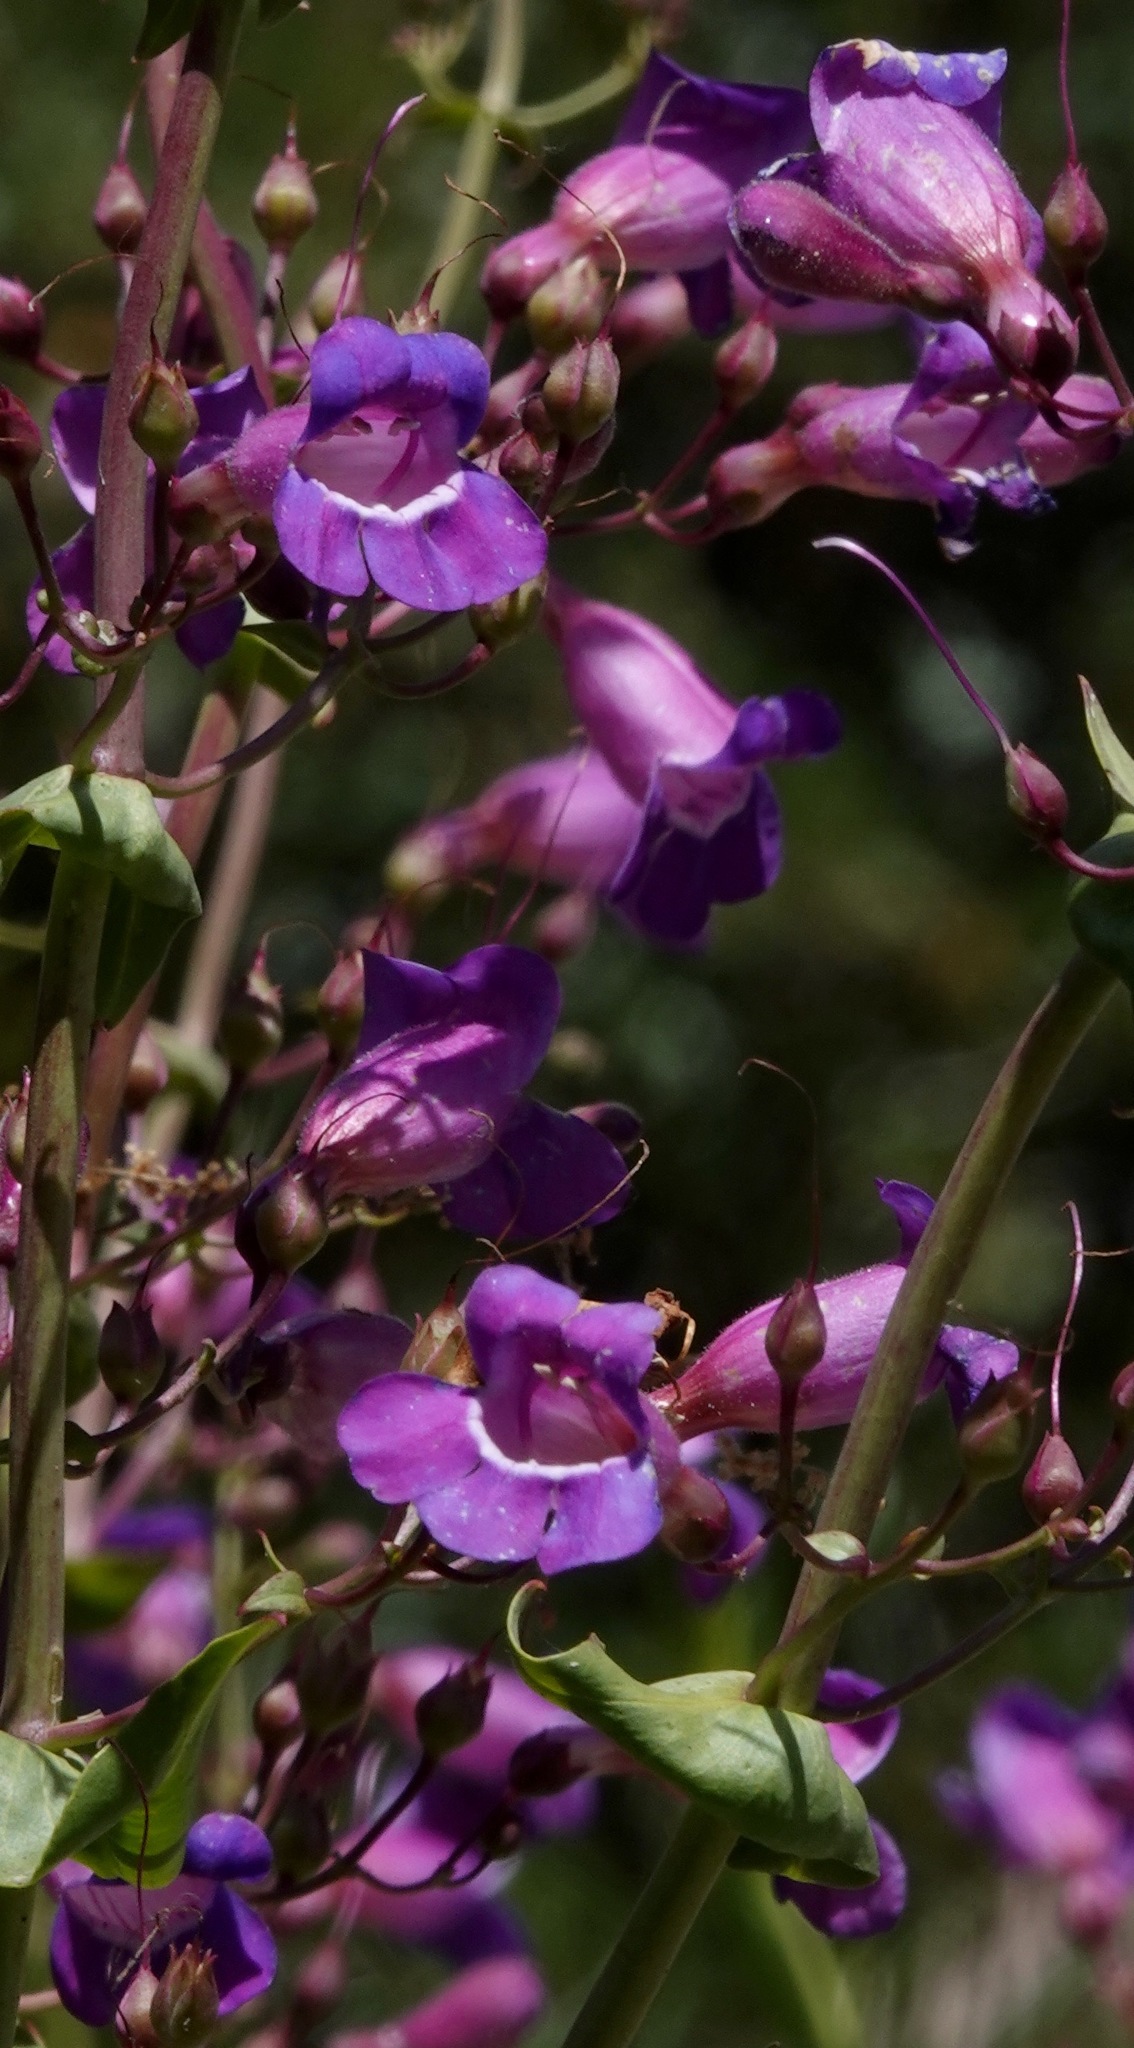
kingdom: Plantae
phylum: Tracheophyta
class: Magnoliopsida
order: Lamiales
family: Plantaginaceae
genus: Penstemon
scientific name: Penstemon spectabilis
